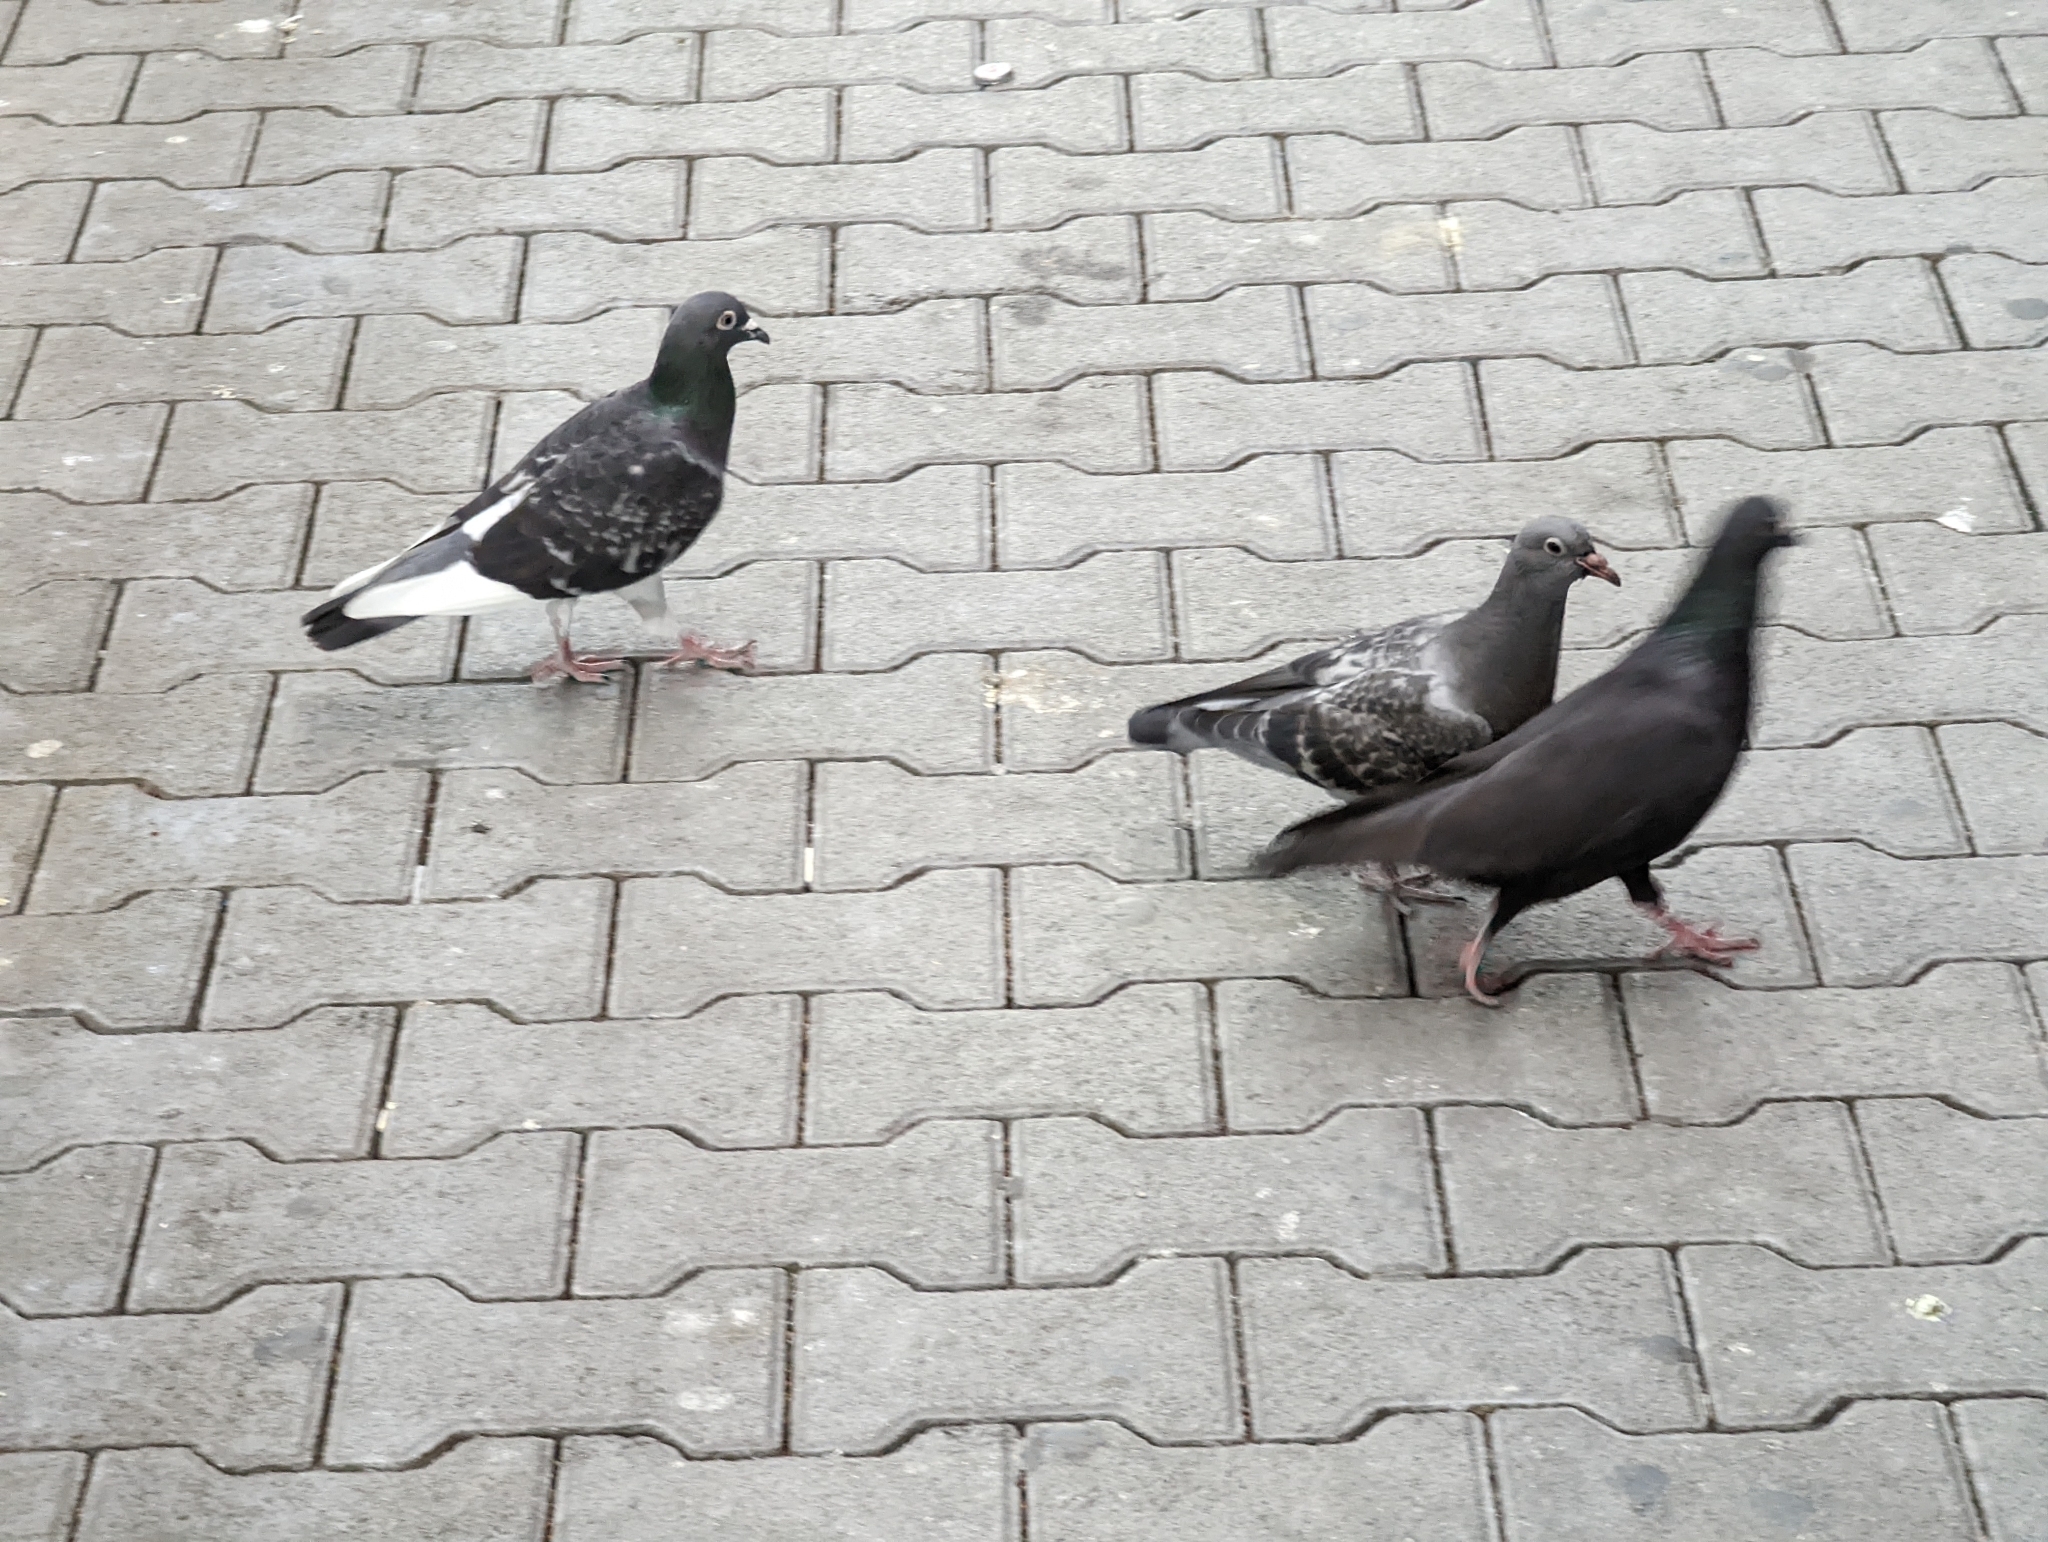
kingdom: Animalia
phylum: Chordata
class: Aves
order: Columbiformes
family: Columbidae
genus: Columba
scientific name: Columba livia
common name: Rock pigeon
